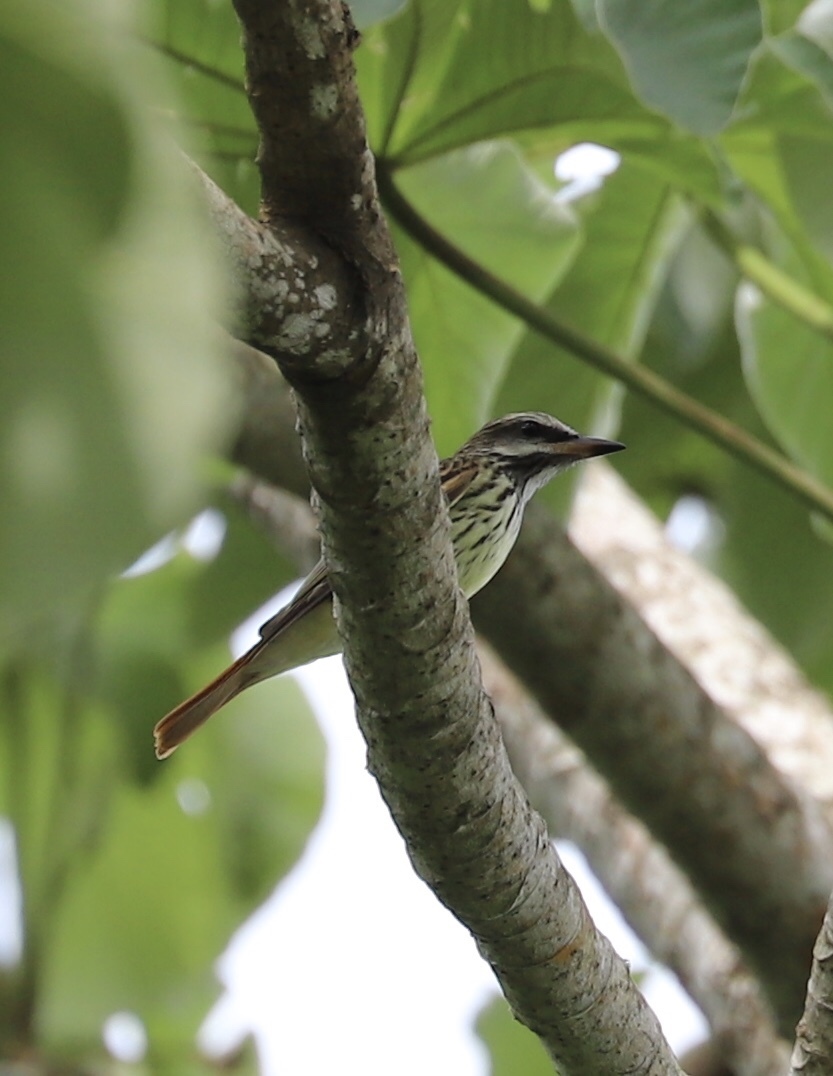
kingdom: Animalia
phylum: Chordata
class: Aves
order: Passeriformes
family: Tyrannidae
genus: Myiodynastes
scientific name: Myiodynastes luteiventris
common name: Sulphur-bellied flycatcher
